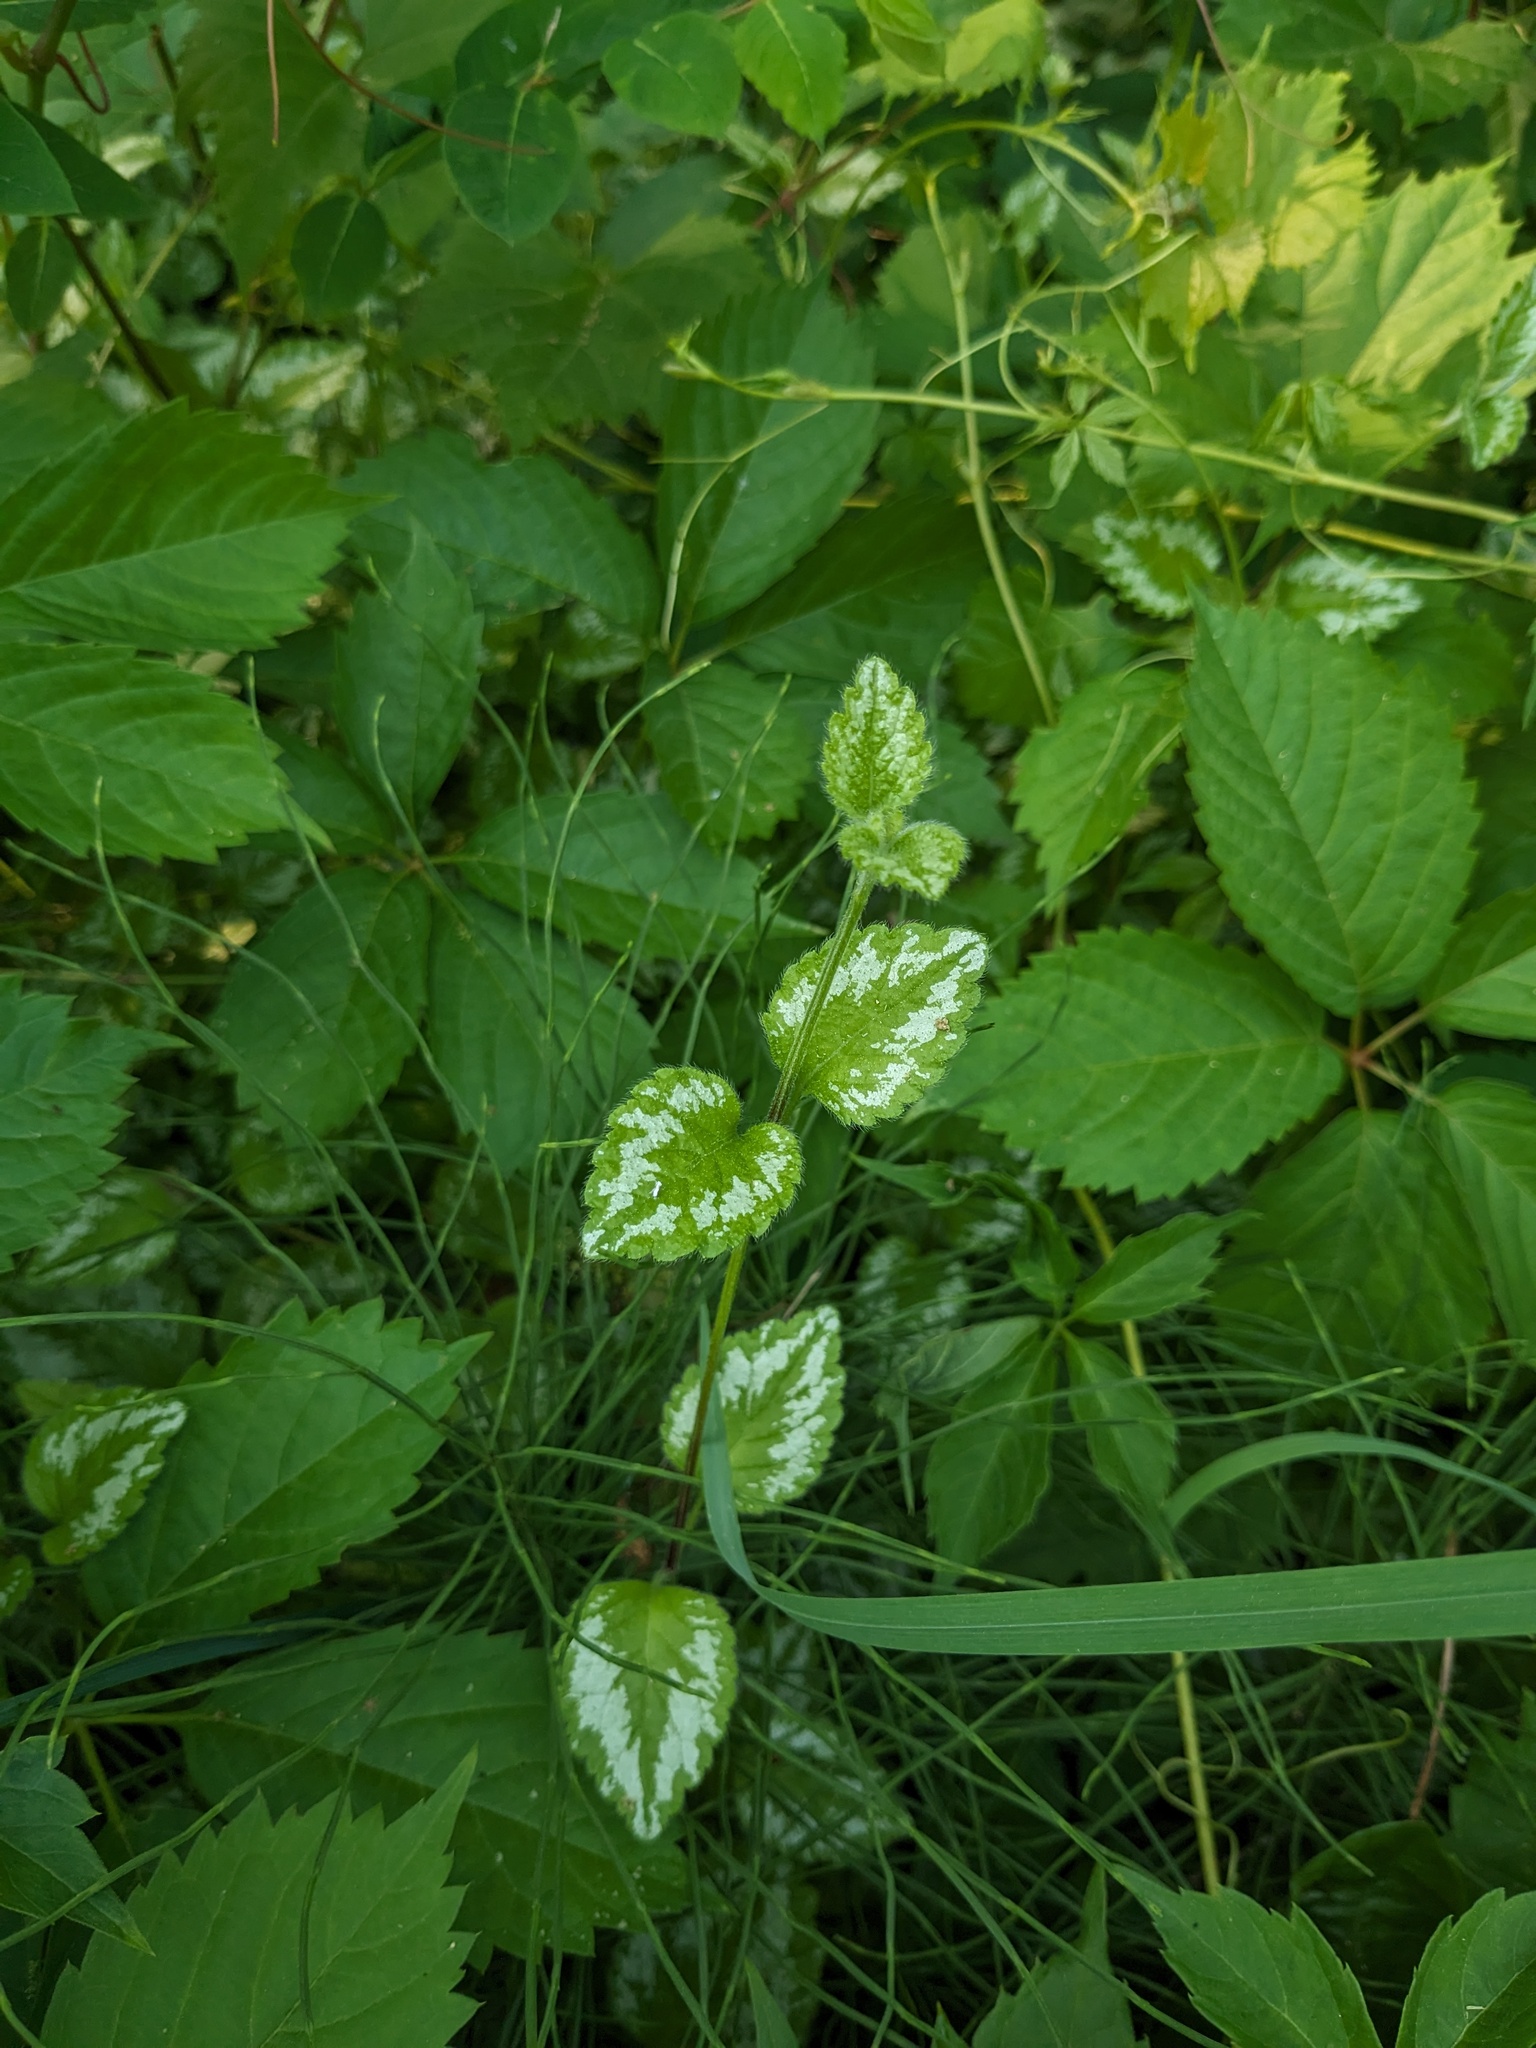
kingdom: Plantae
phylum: Tracheophyta
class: Magnoliopsida
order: Lamiales
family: Lamiaceae
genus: Lamium
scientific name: Lamium galeobdolon
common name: Yellow archangel
